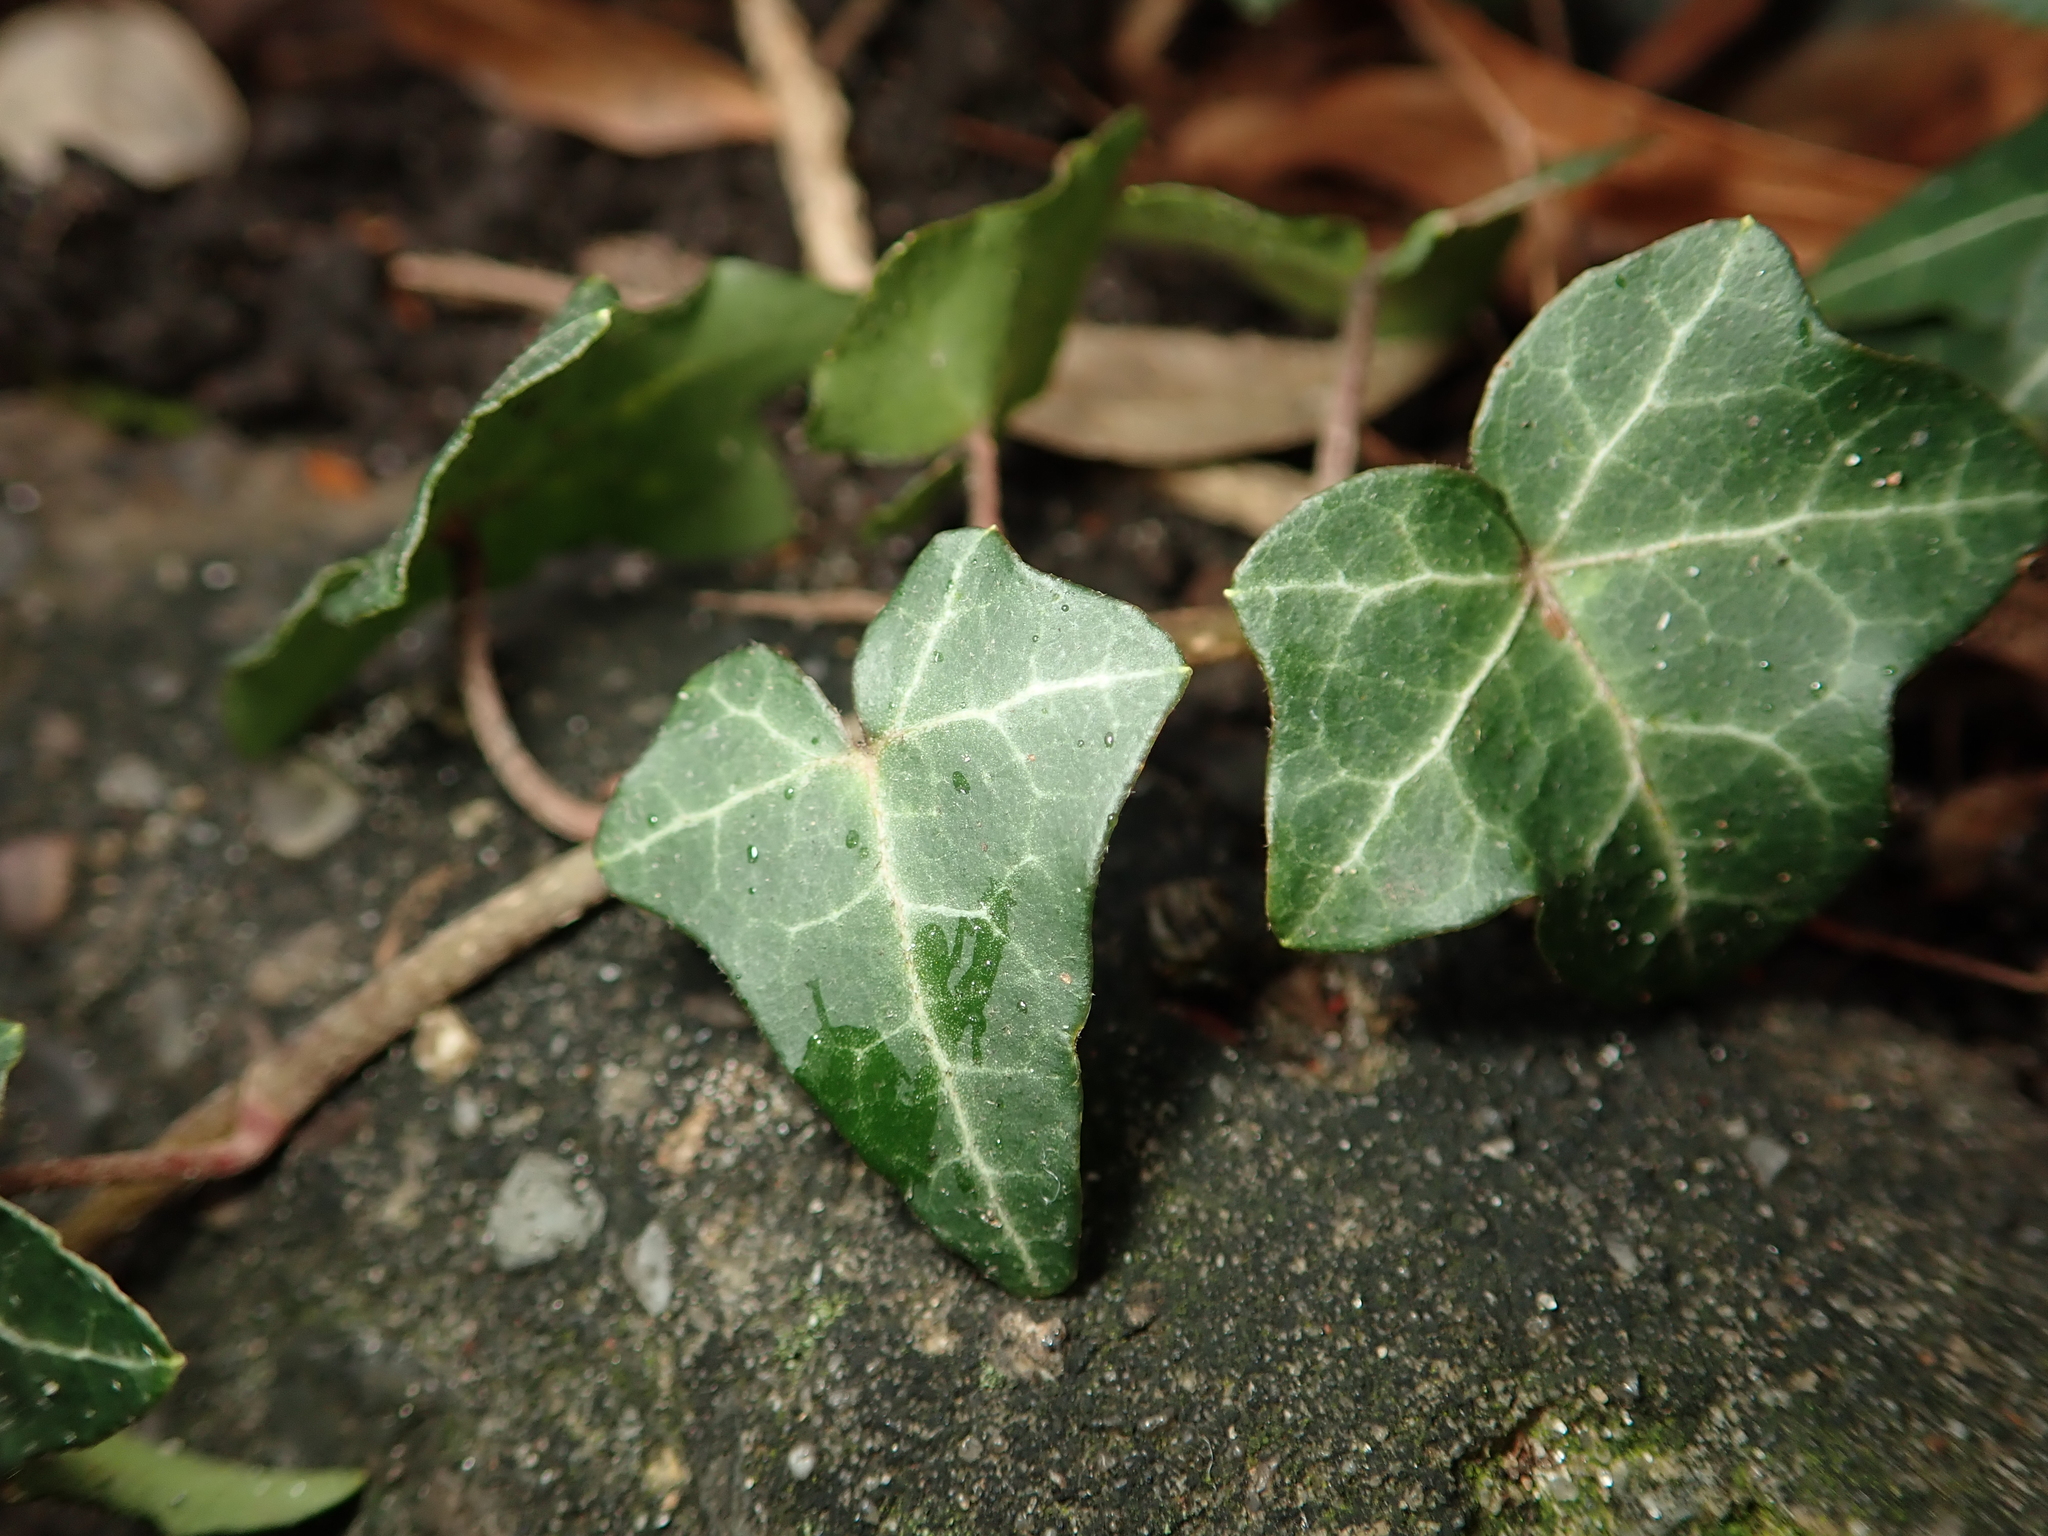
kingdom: Plantae
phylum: Tracheophyta
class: Magnoliopsida
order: Apiales
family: Araliaceae
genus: Hedera
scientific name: Hedera helix
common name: Ivy
